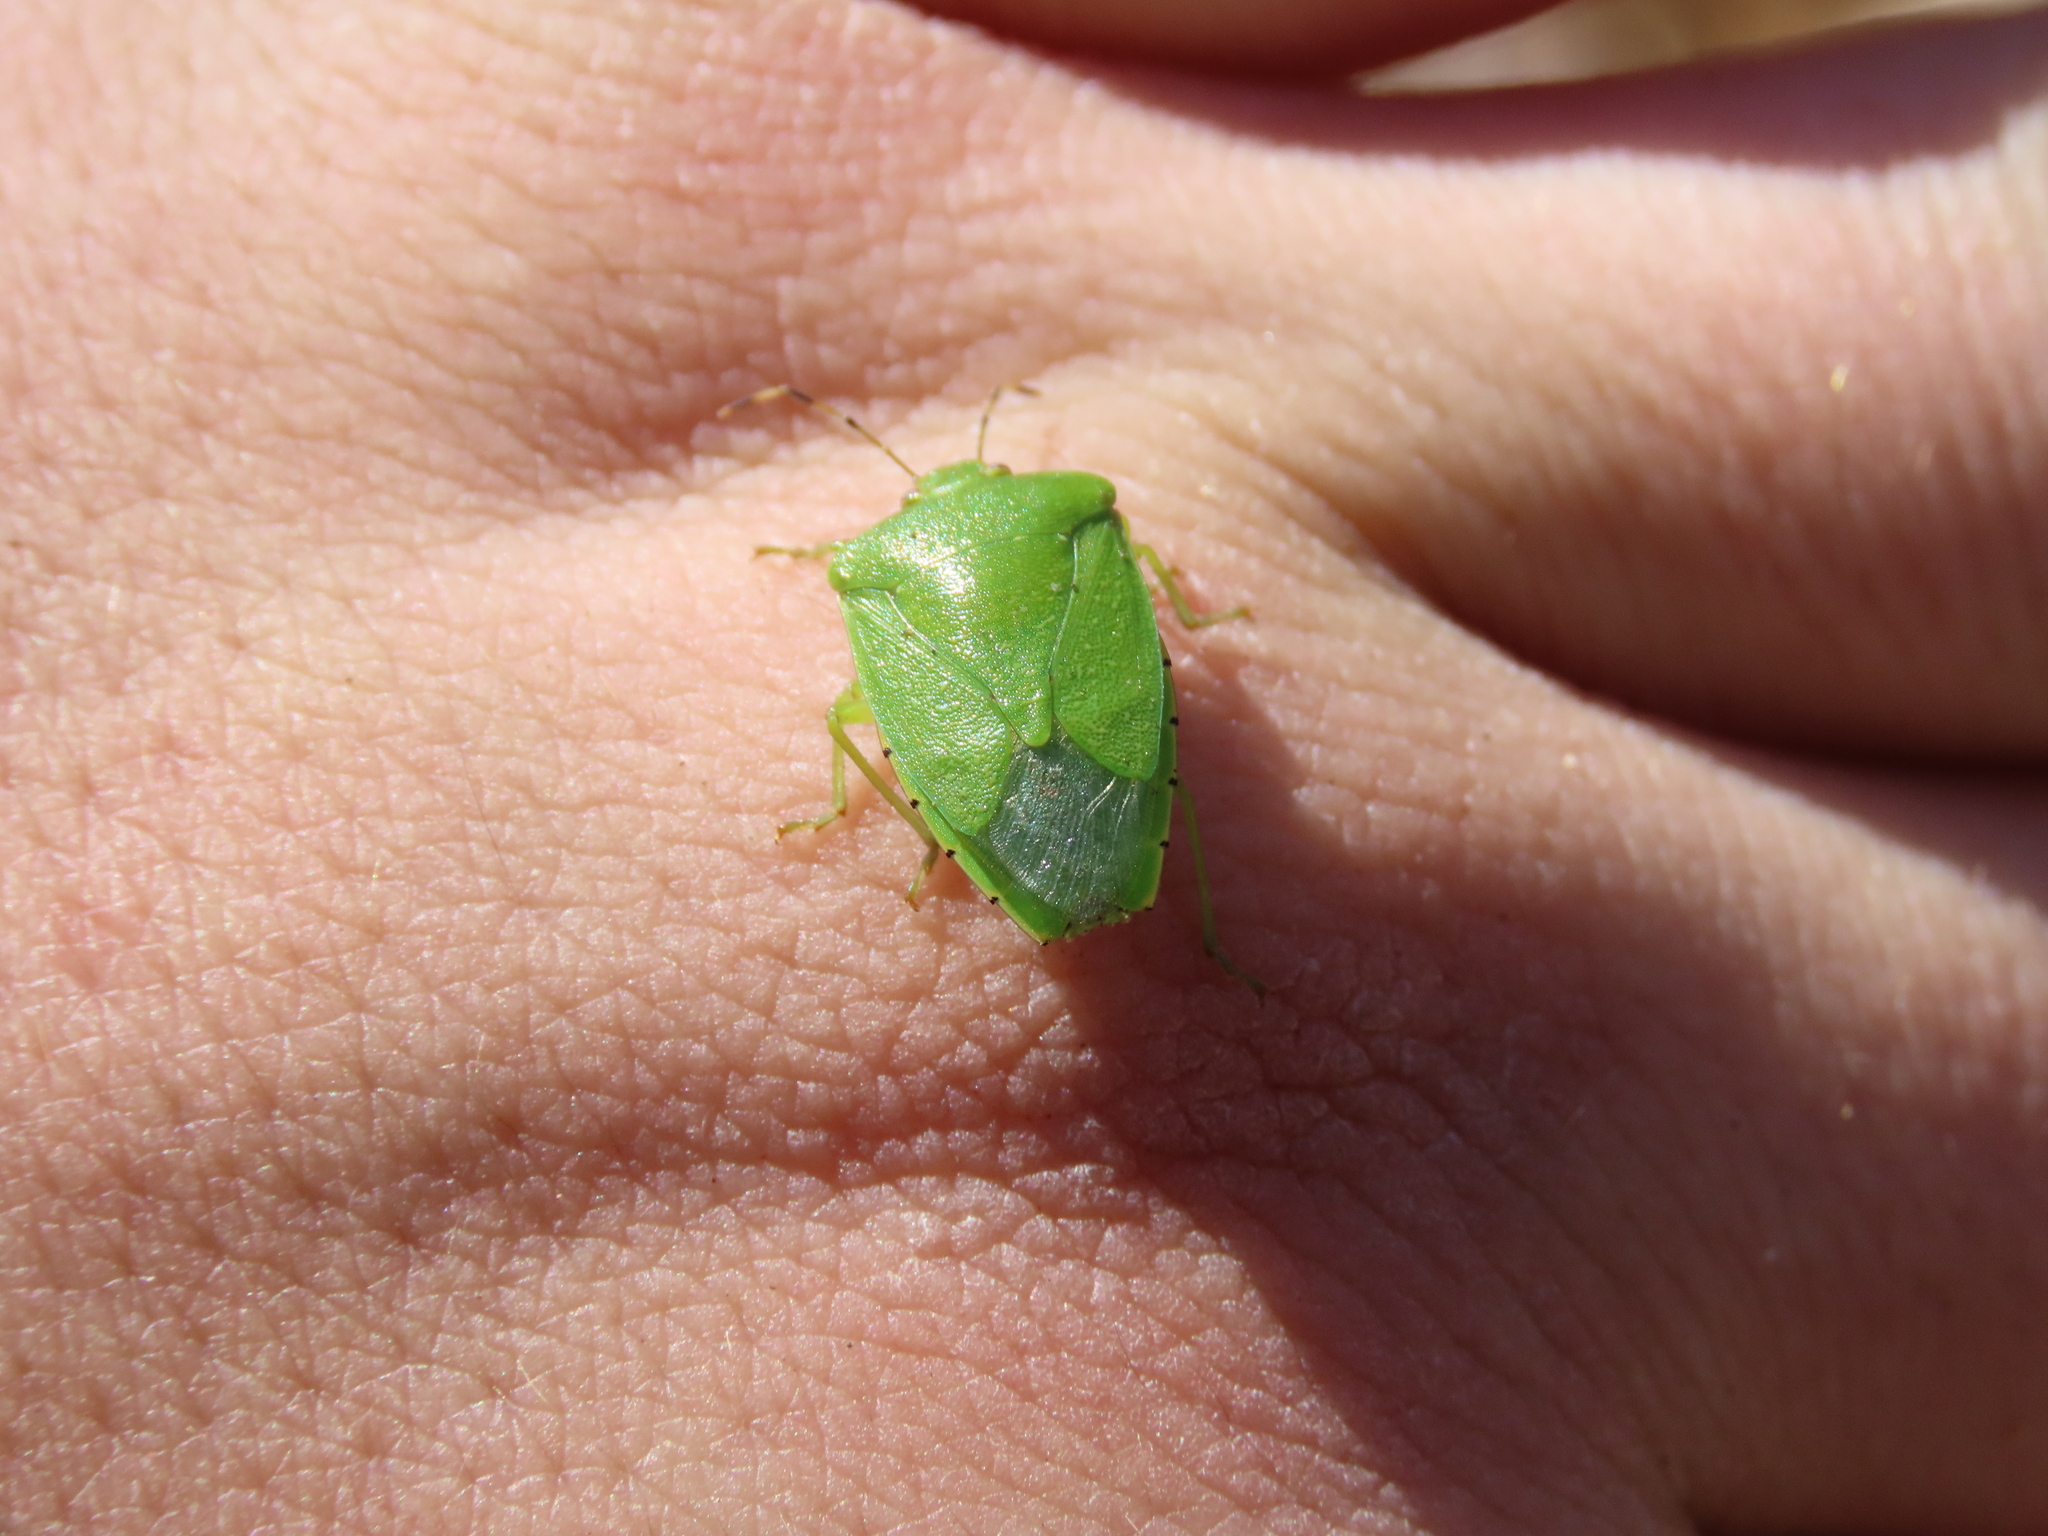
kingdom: Animalia
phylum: Arthropoda
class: Insecta
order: Hemiptera
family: Pentatomidae
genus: Chinavia
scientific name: Chinavia hilaris
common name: Green stink bug
